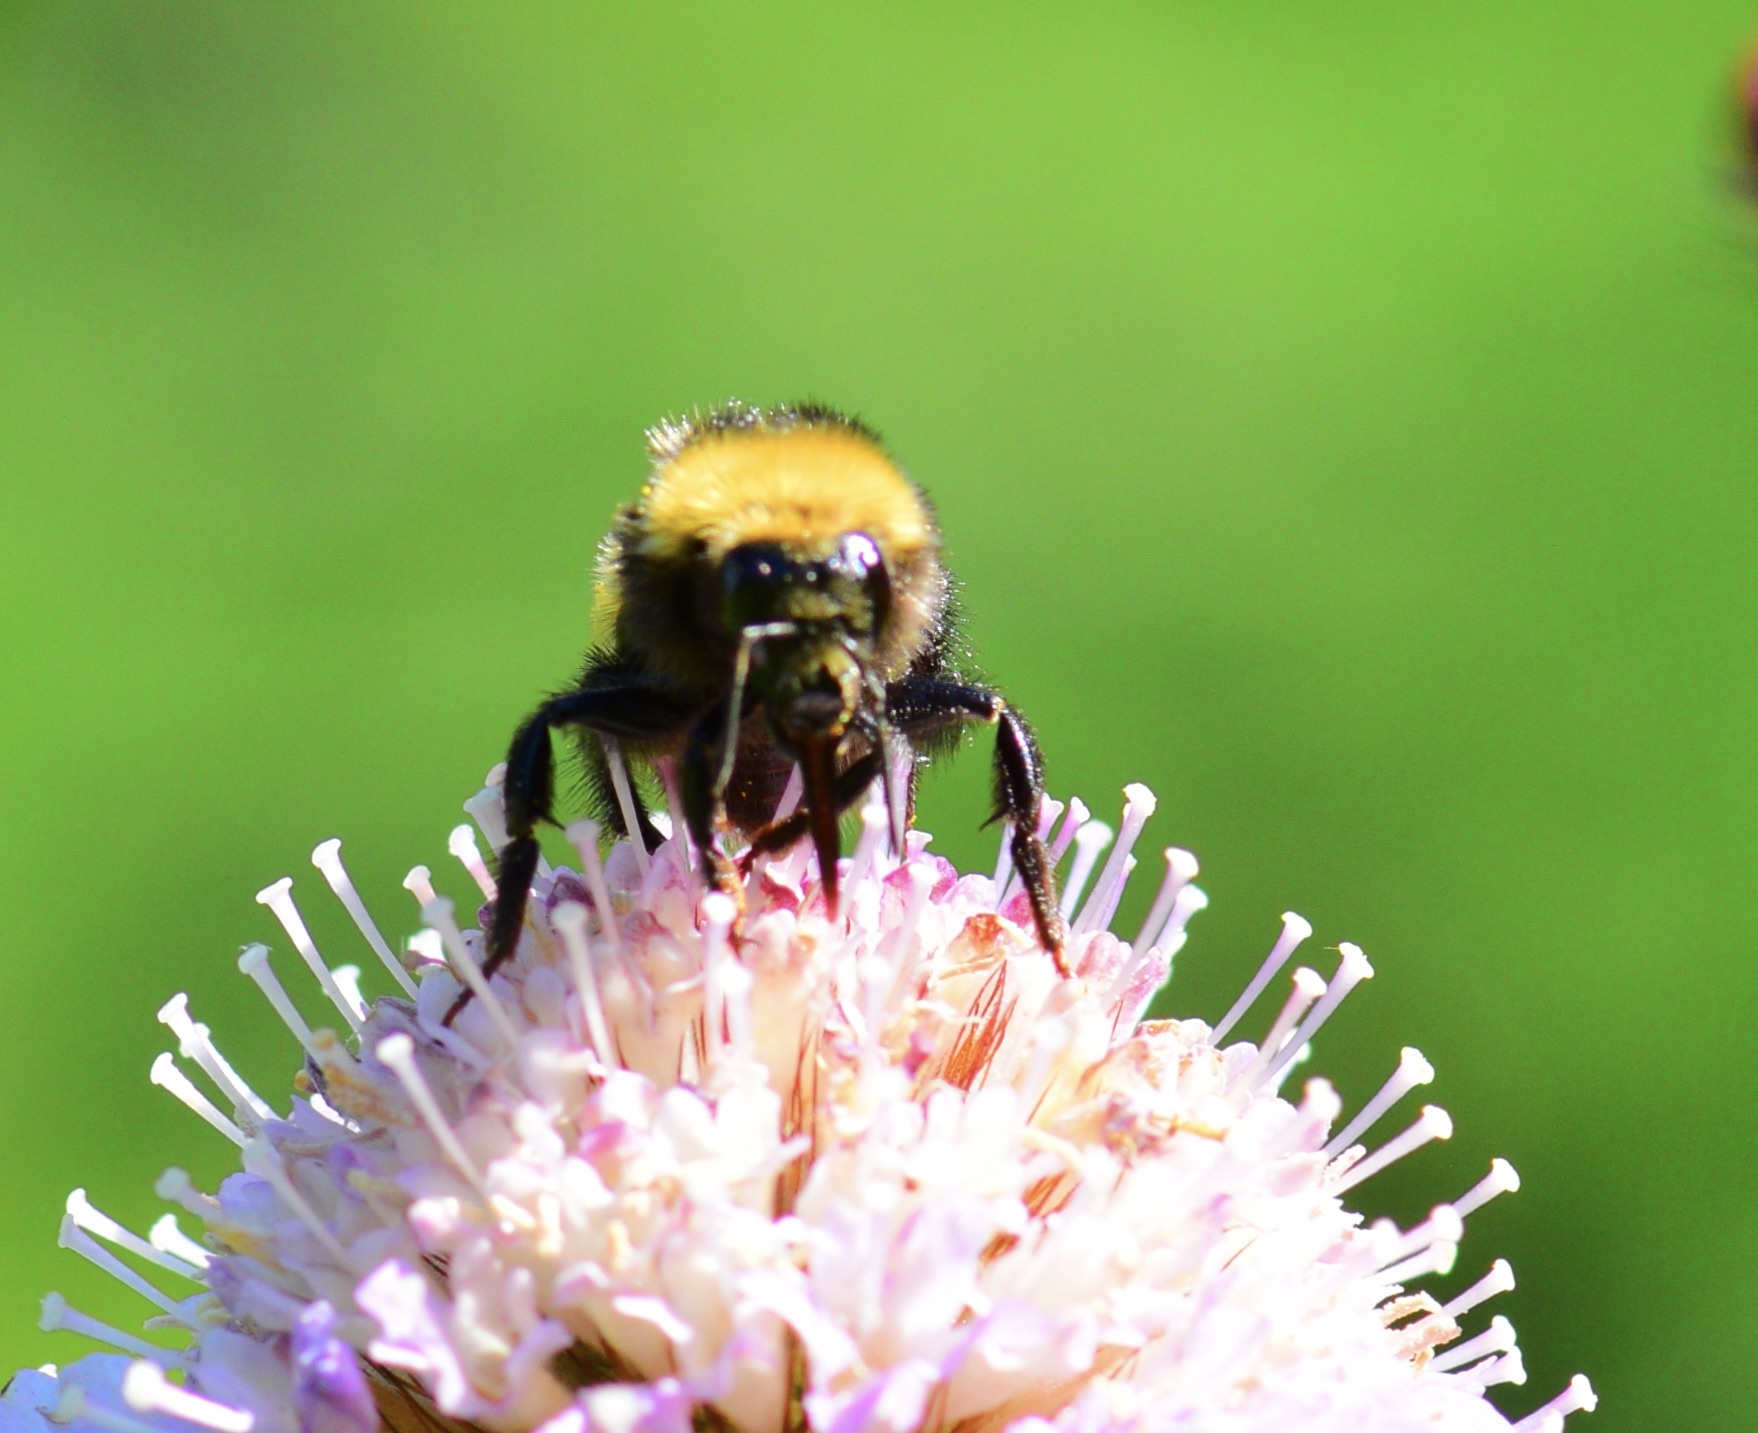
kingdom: Animalia
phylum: Arthropoda
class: Insecta
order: Hymenoptera
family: Apidae
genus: Bombus
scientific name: Bombus borealis
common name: Northern amber bumble bee
